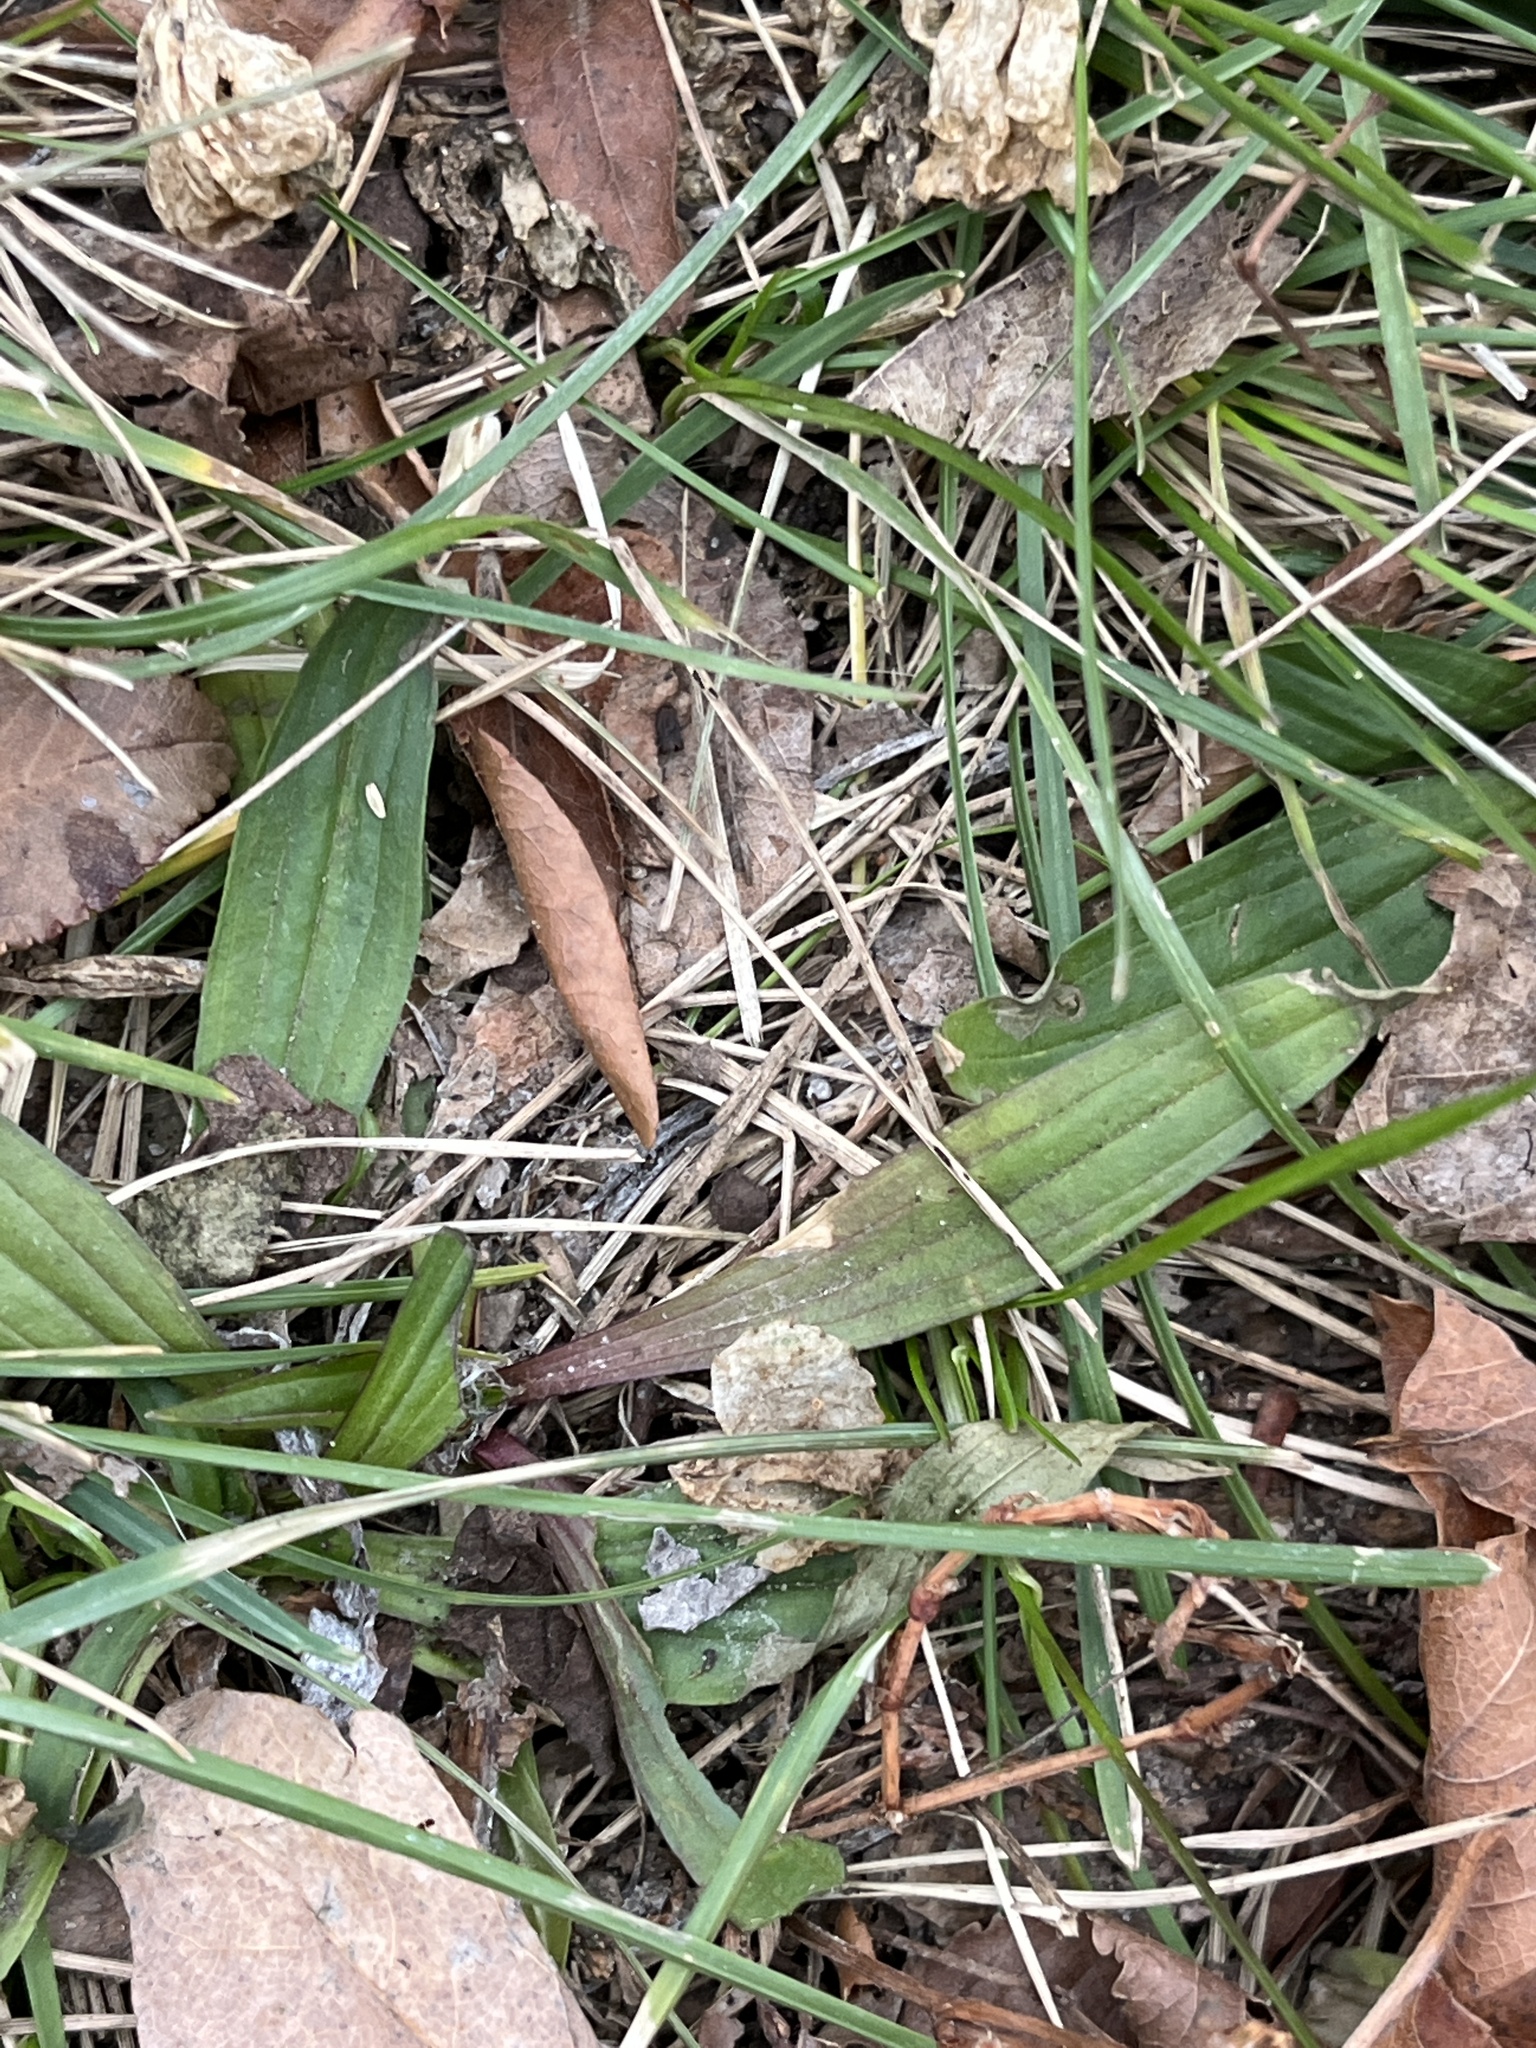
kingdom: Plantae
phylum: Tracheophyta
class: Magnoliopsida
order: Lamiales
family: Plantaginaceae
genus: Plantago
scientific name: Plantago lanceolata
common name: Ribwort plantain
